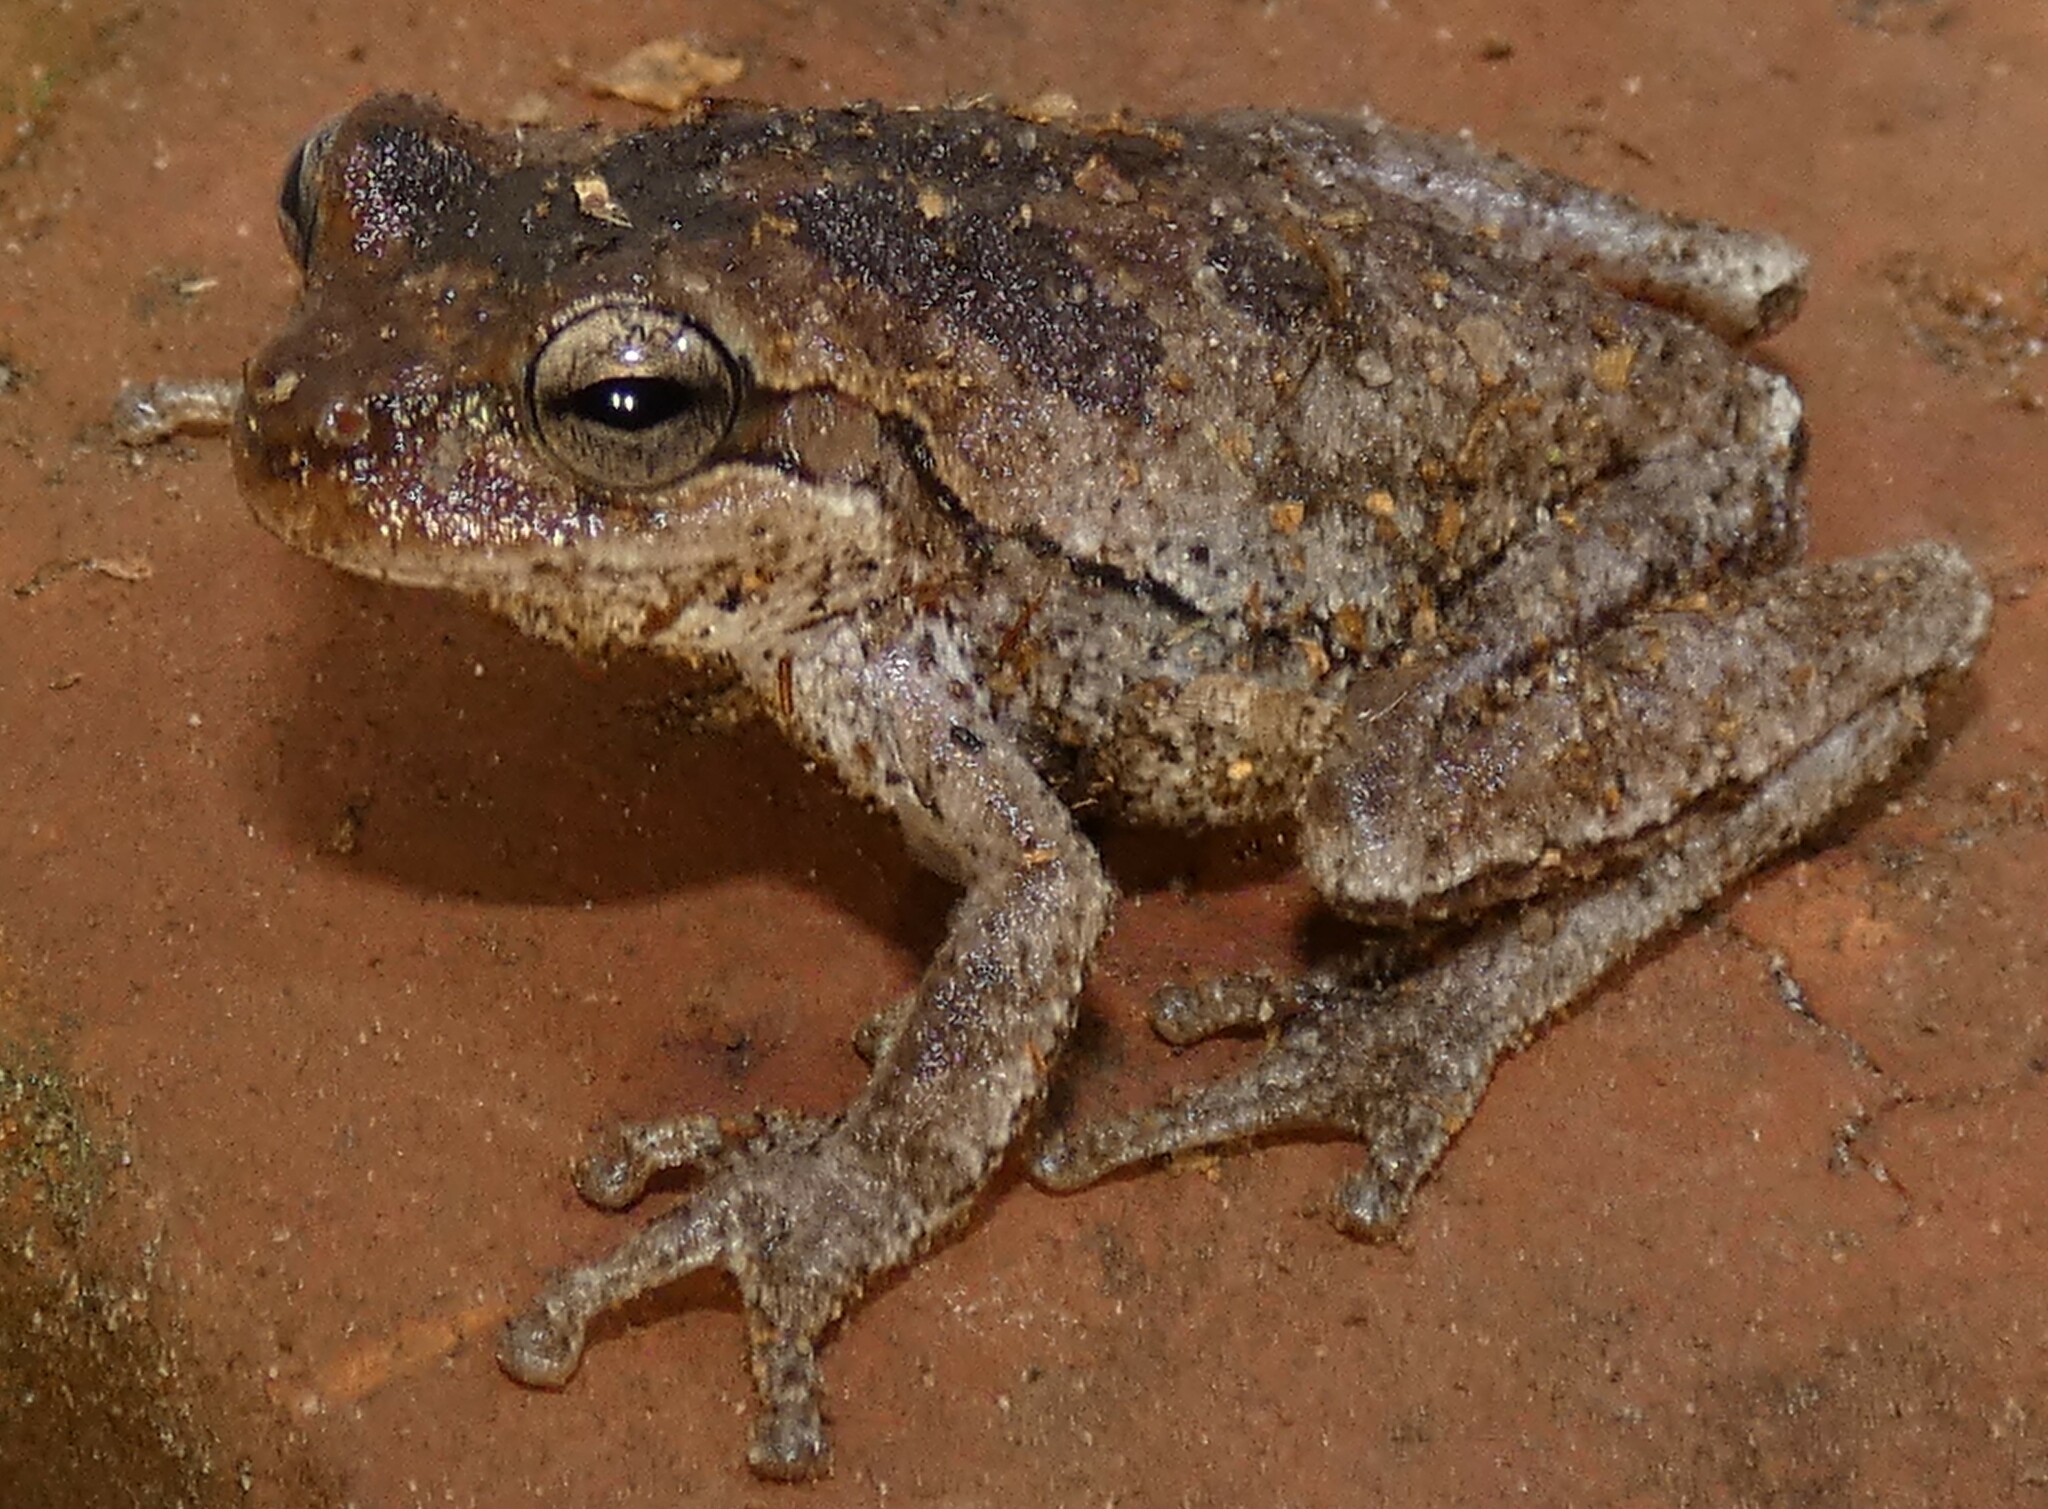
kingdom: Animalia
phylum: Chordata
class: Amphibia
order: Anura
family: Hylidae
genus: Hyla
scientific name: Hyla femoralis
